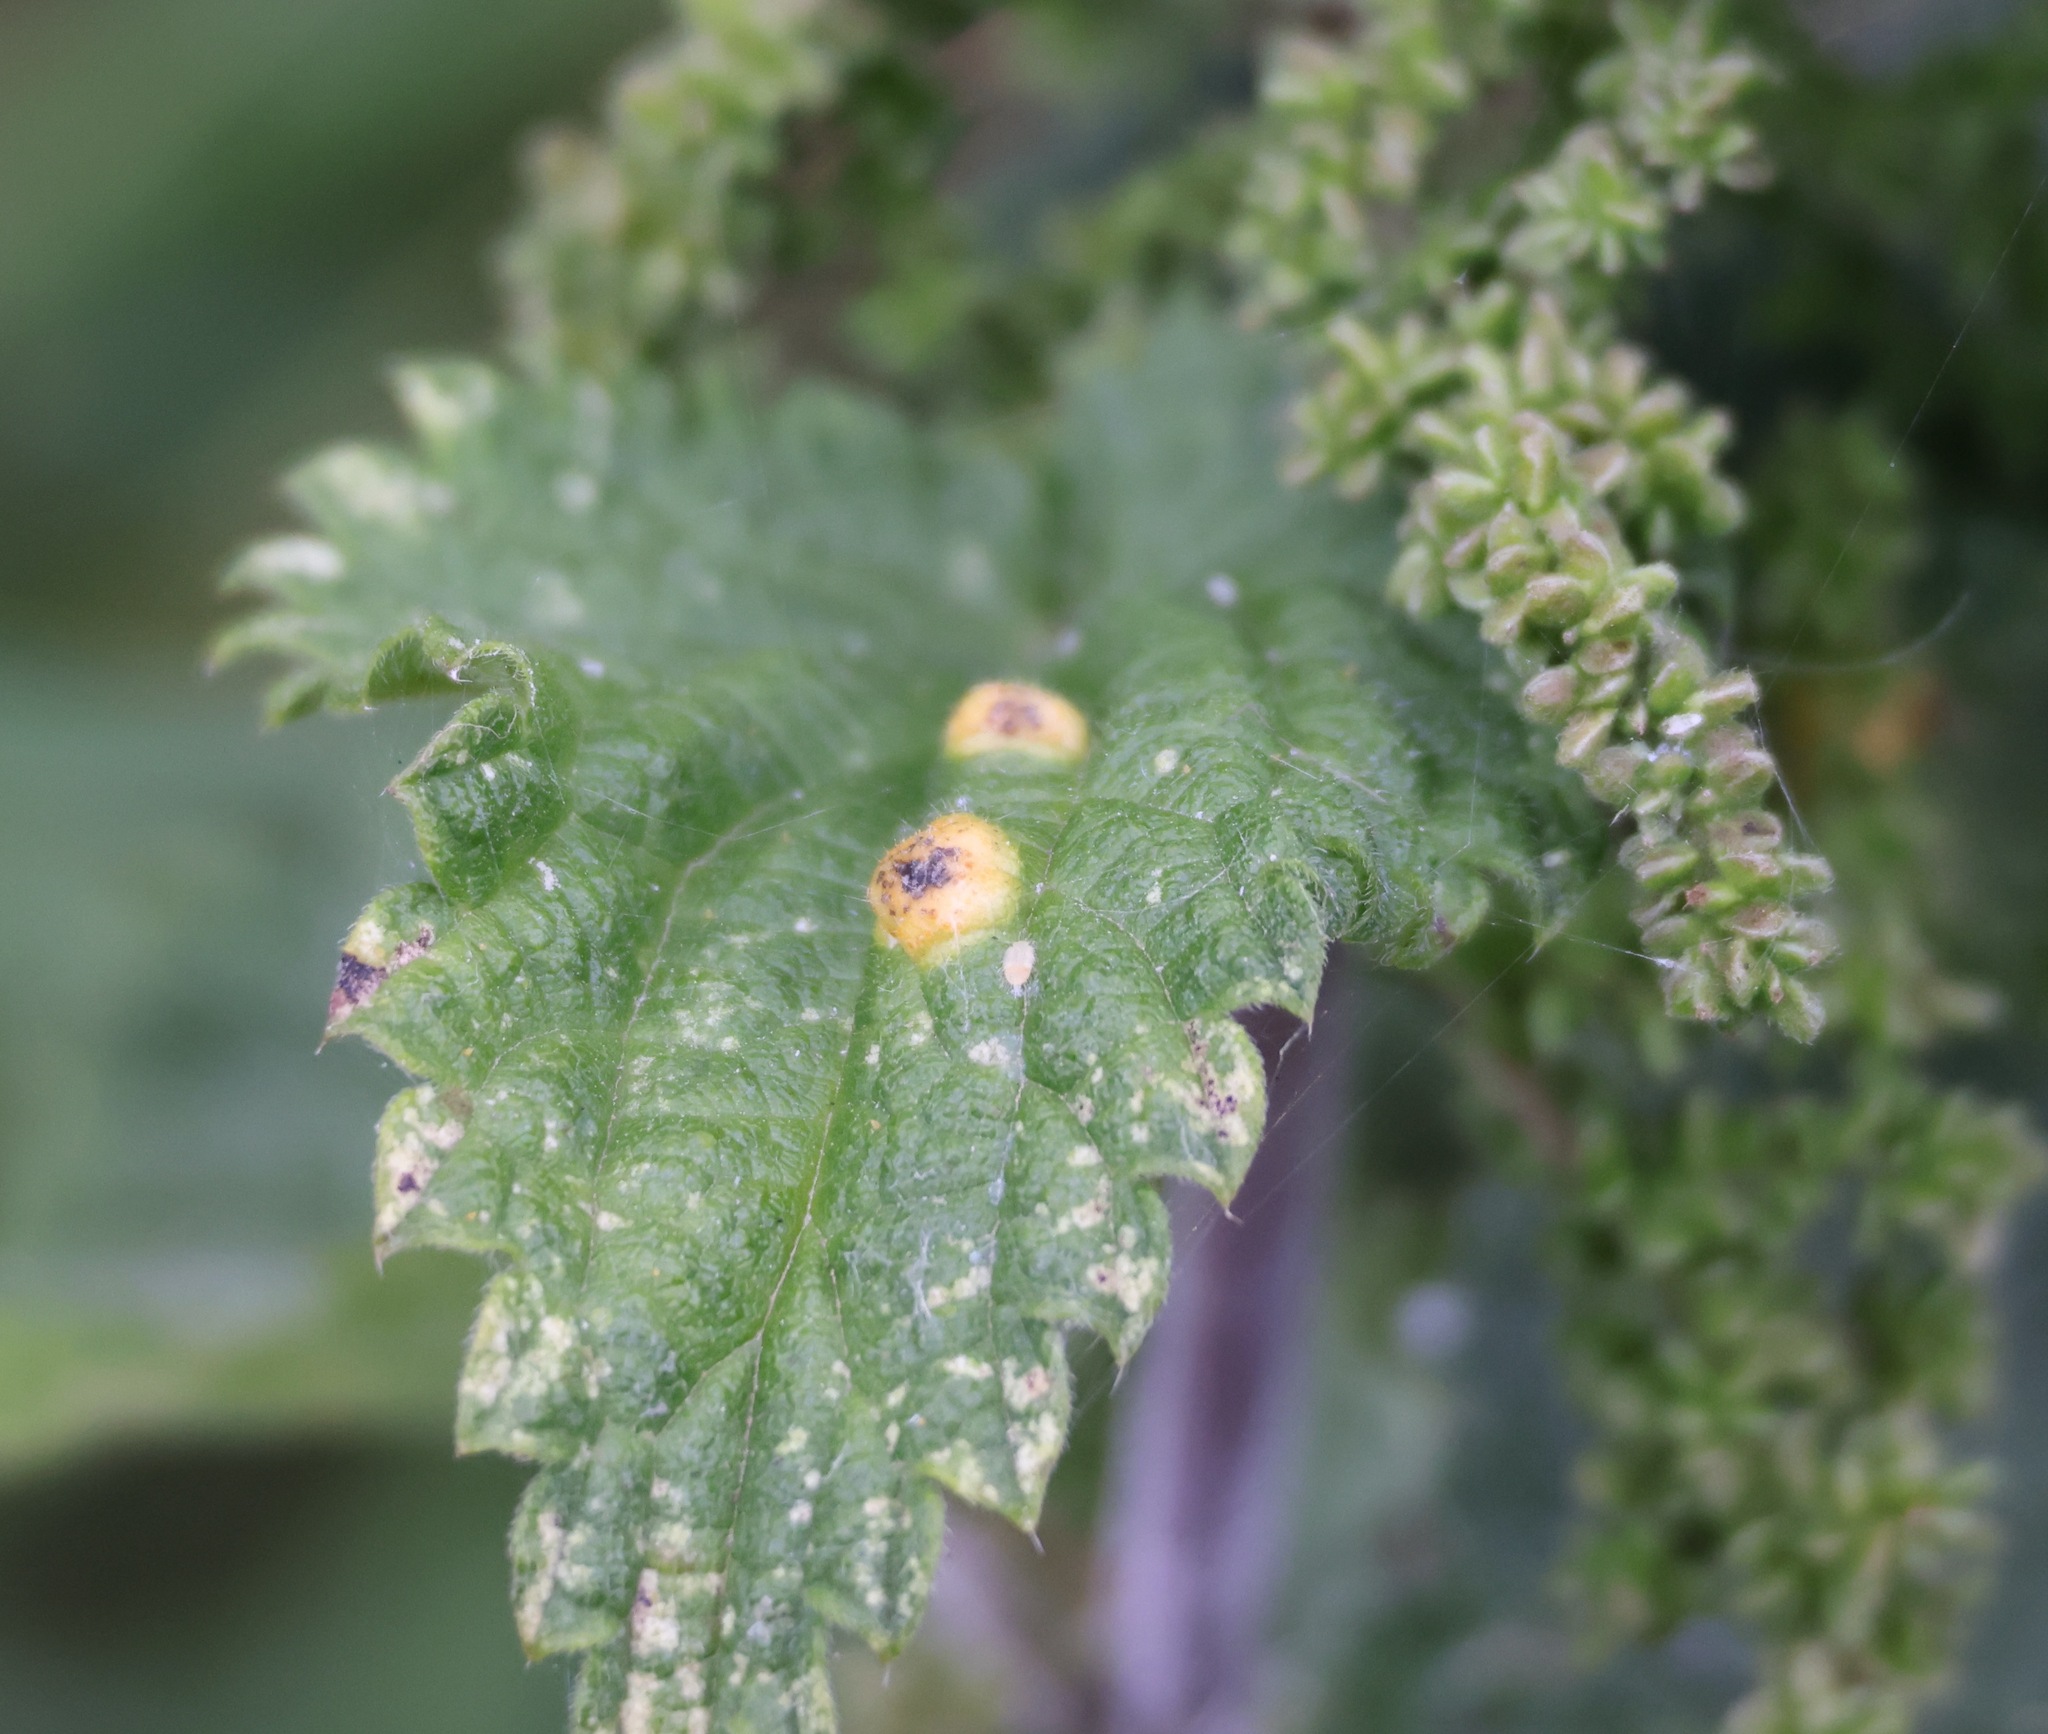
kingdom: Animalia
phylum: Arthropoda
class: Insecta
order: Diptera
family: Cecidomyiidae
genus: Dasineura
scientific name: Dasineura urticae
